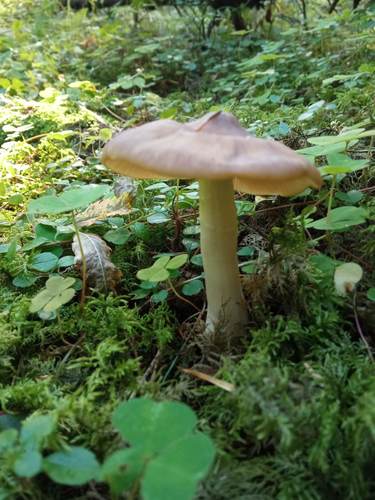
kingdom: Fungi
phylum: Basidiomycota
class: Agaricomycetes
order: Agaricales
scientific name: Agaricales
